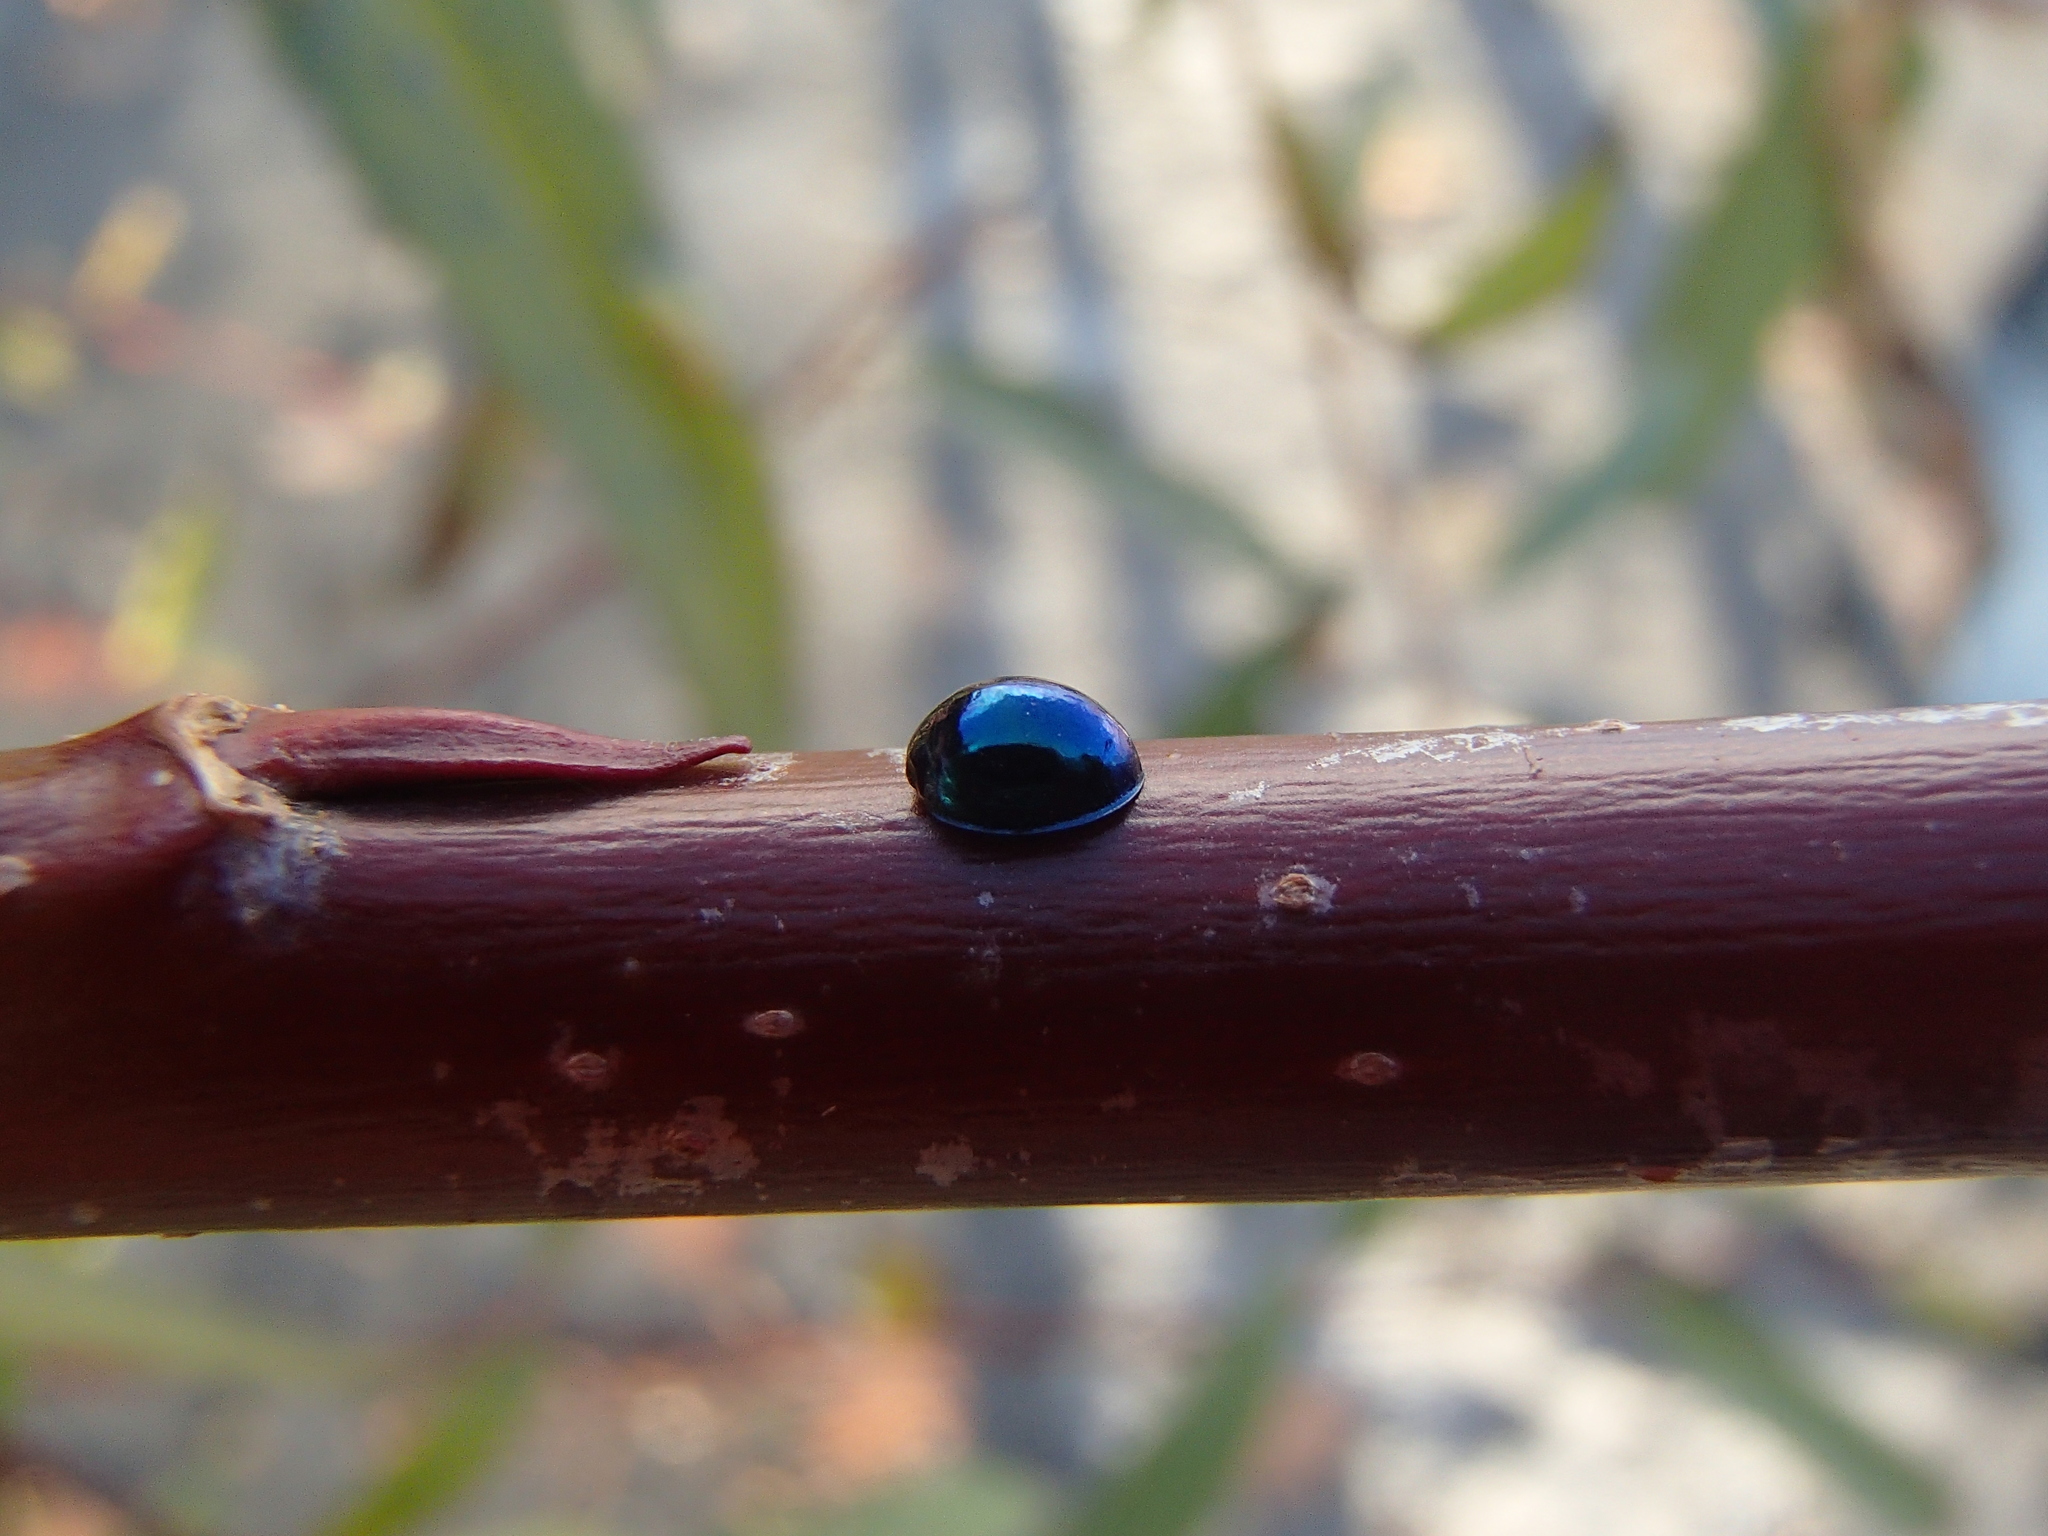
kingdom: Animalia
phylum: Arthropoda
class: Insecta
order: Coleoptera
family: Coccinellidae
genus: Halmus
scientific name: Halmus chalybeus
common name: Steel blue ladybird beetle
